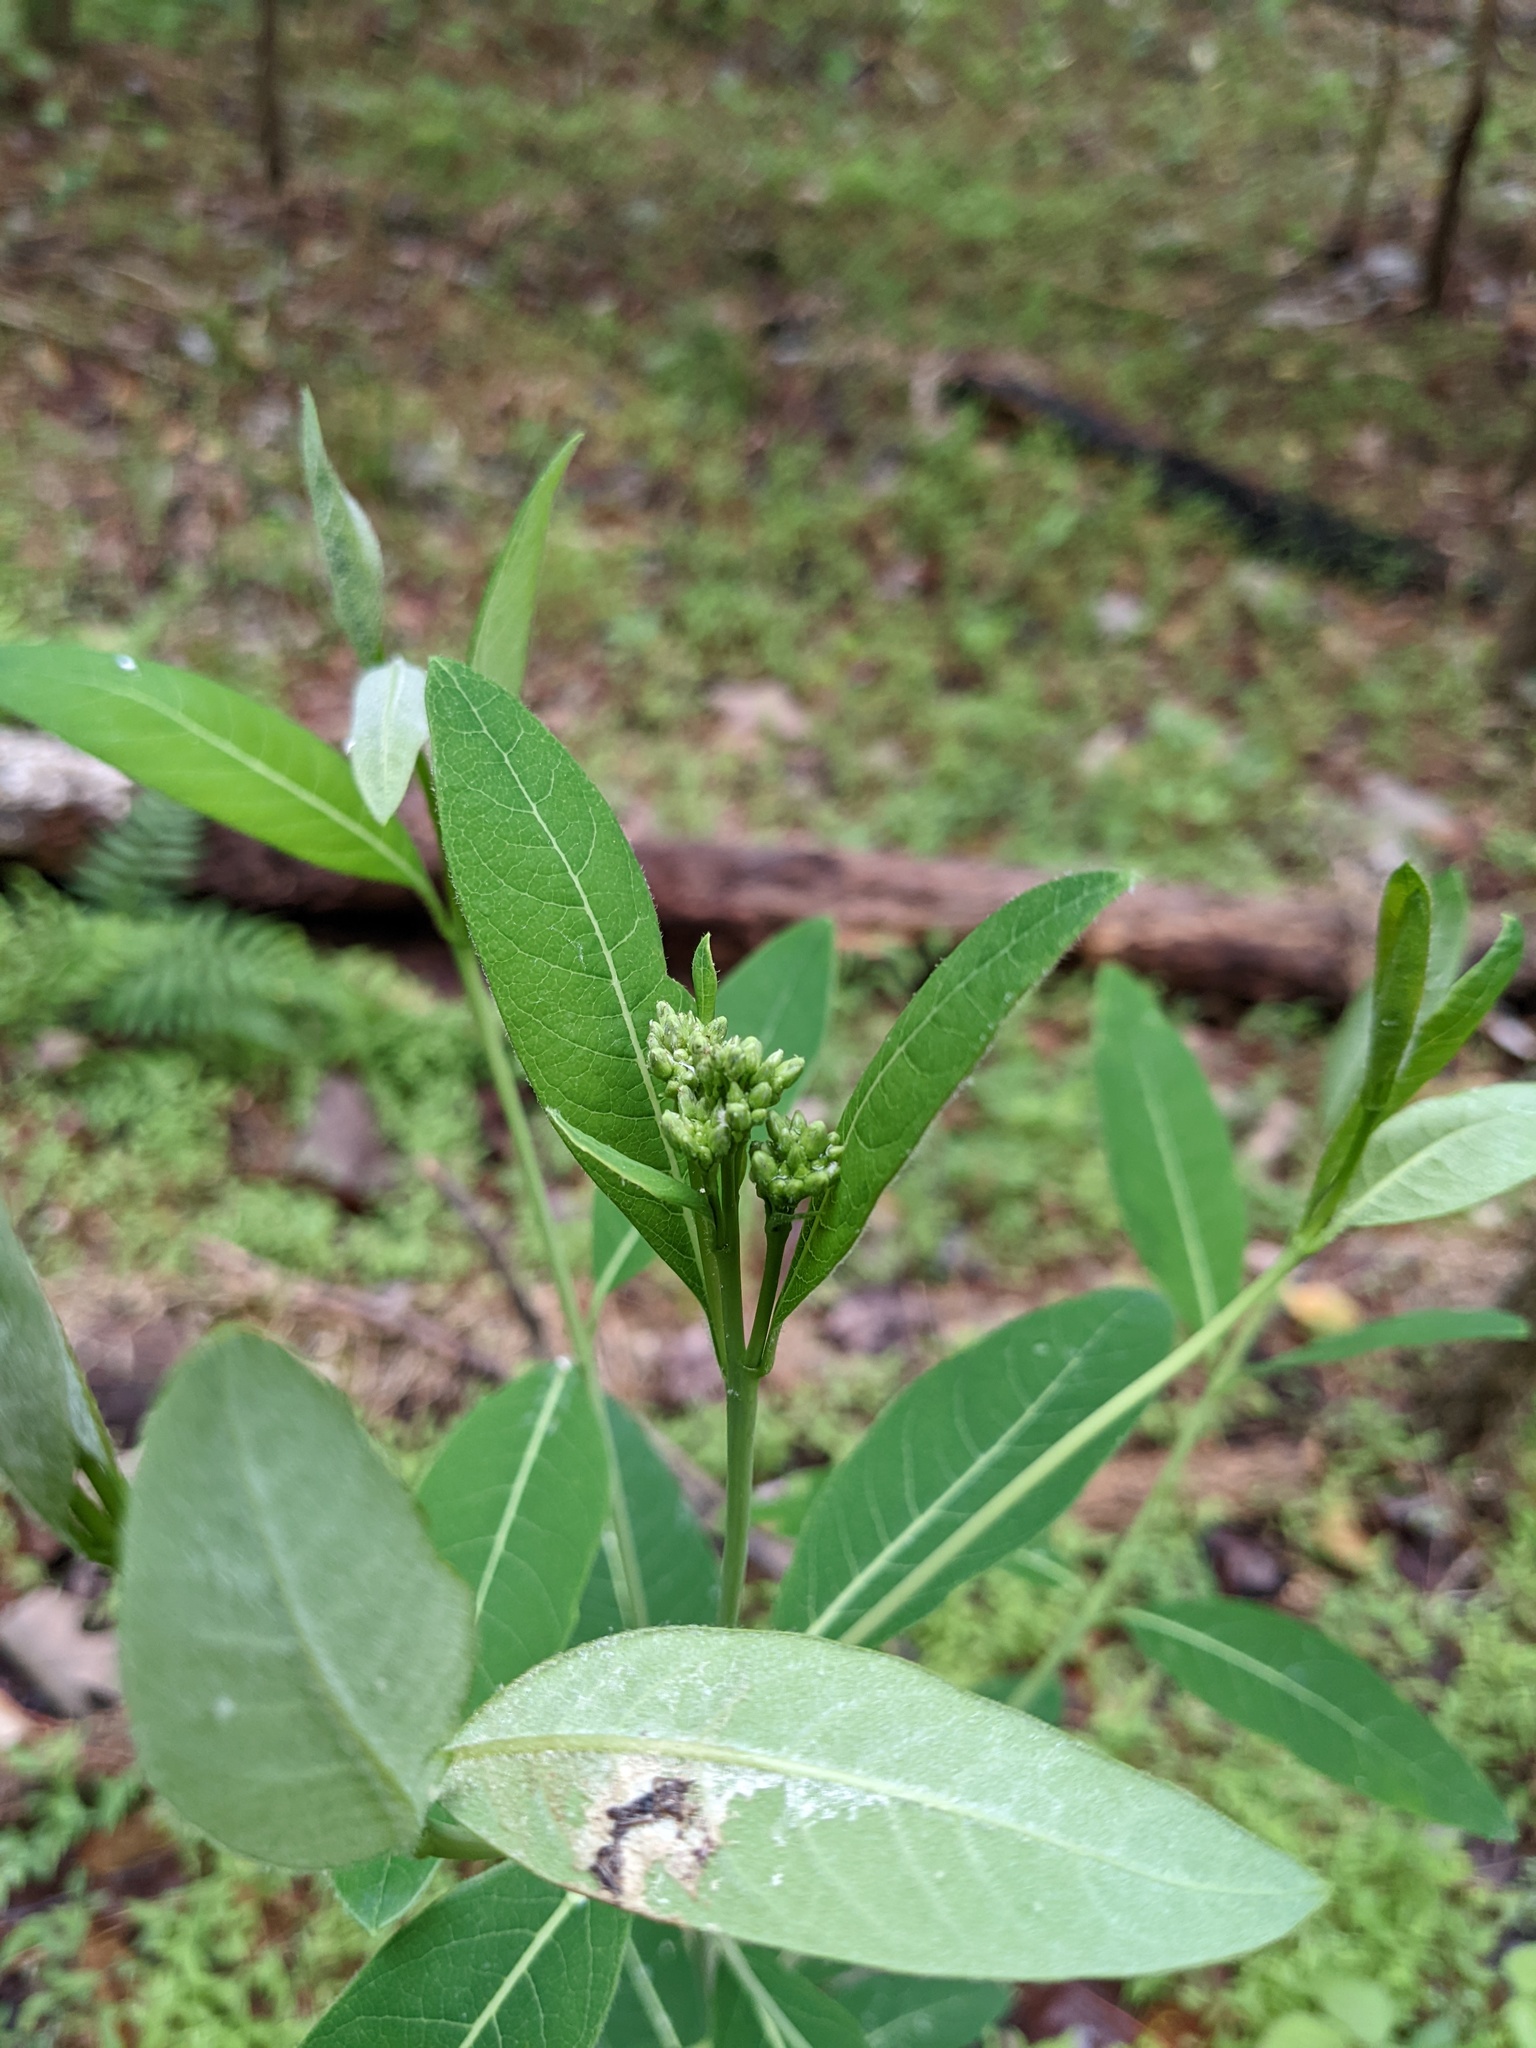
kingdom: Plantae
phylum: Tracheophyta
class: Magnoliopsida
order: Gentianales
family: Apocynaceae
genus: Apocynum
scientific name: Apocynum cannabinum
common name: Hemp dogbane
